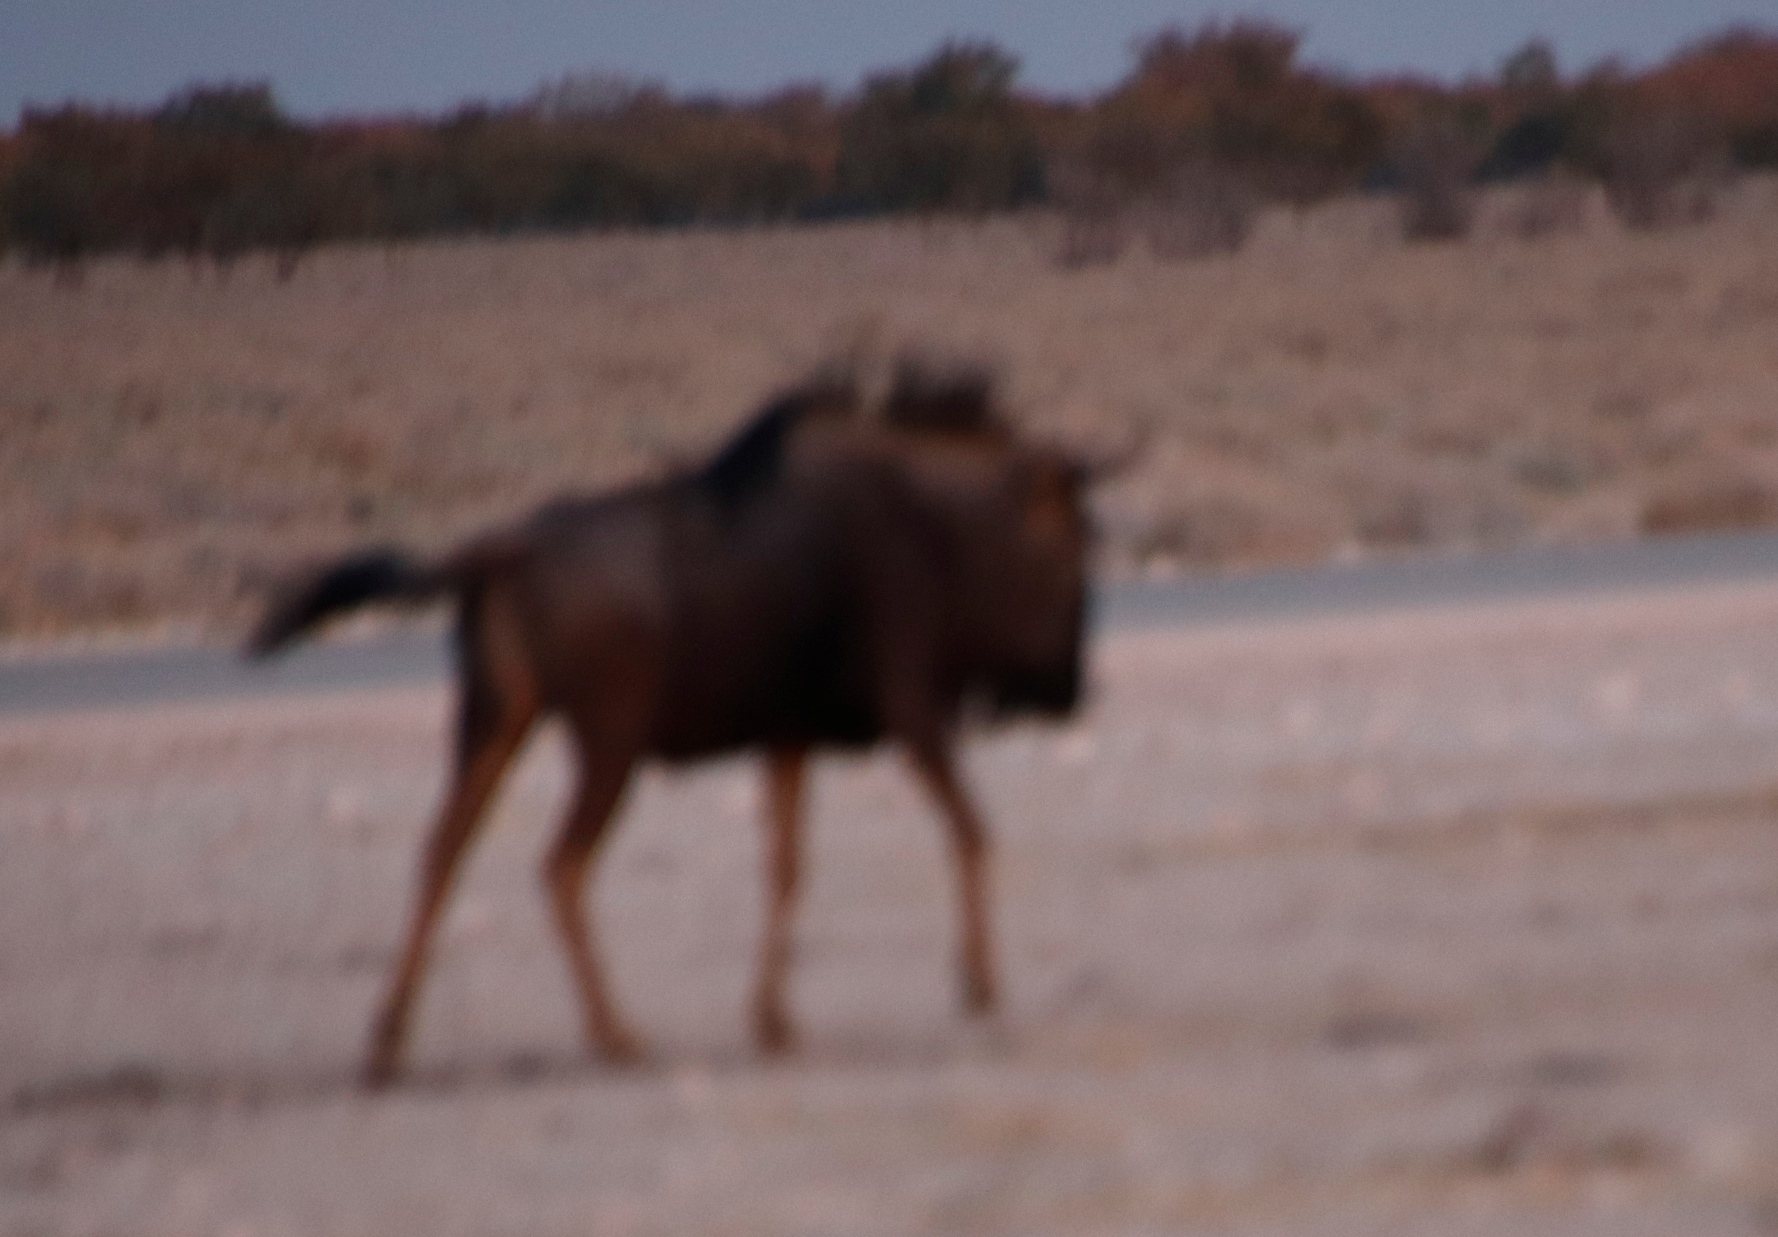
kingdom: Animalia
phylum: Chordata
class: Mammalia
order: Artiodactyla
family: Bovidae
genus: Connochaetes
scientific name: Connochaetes taurinus
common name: Blue wildebeest
